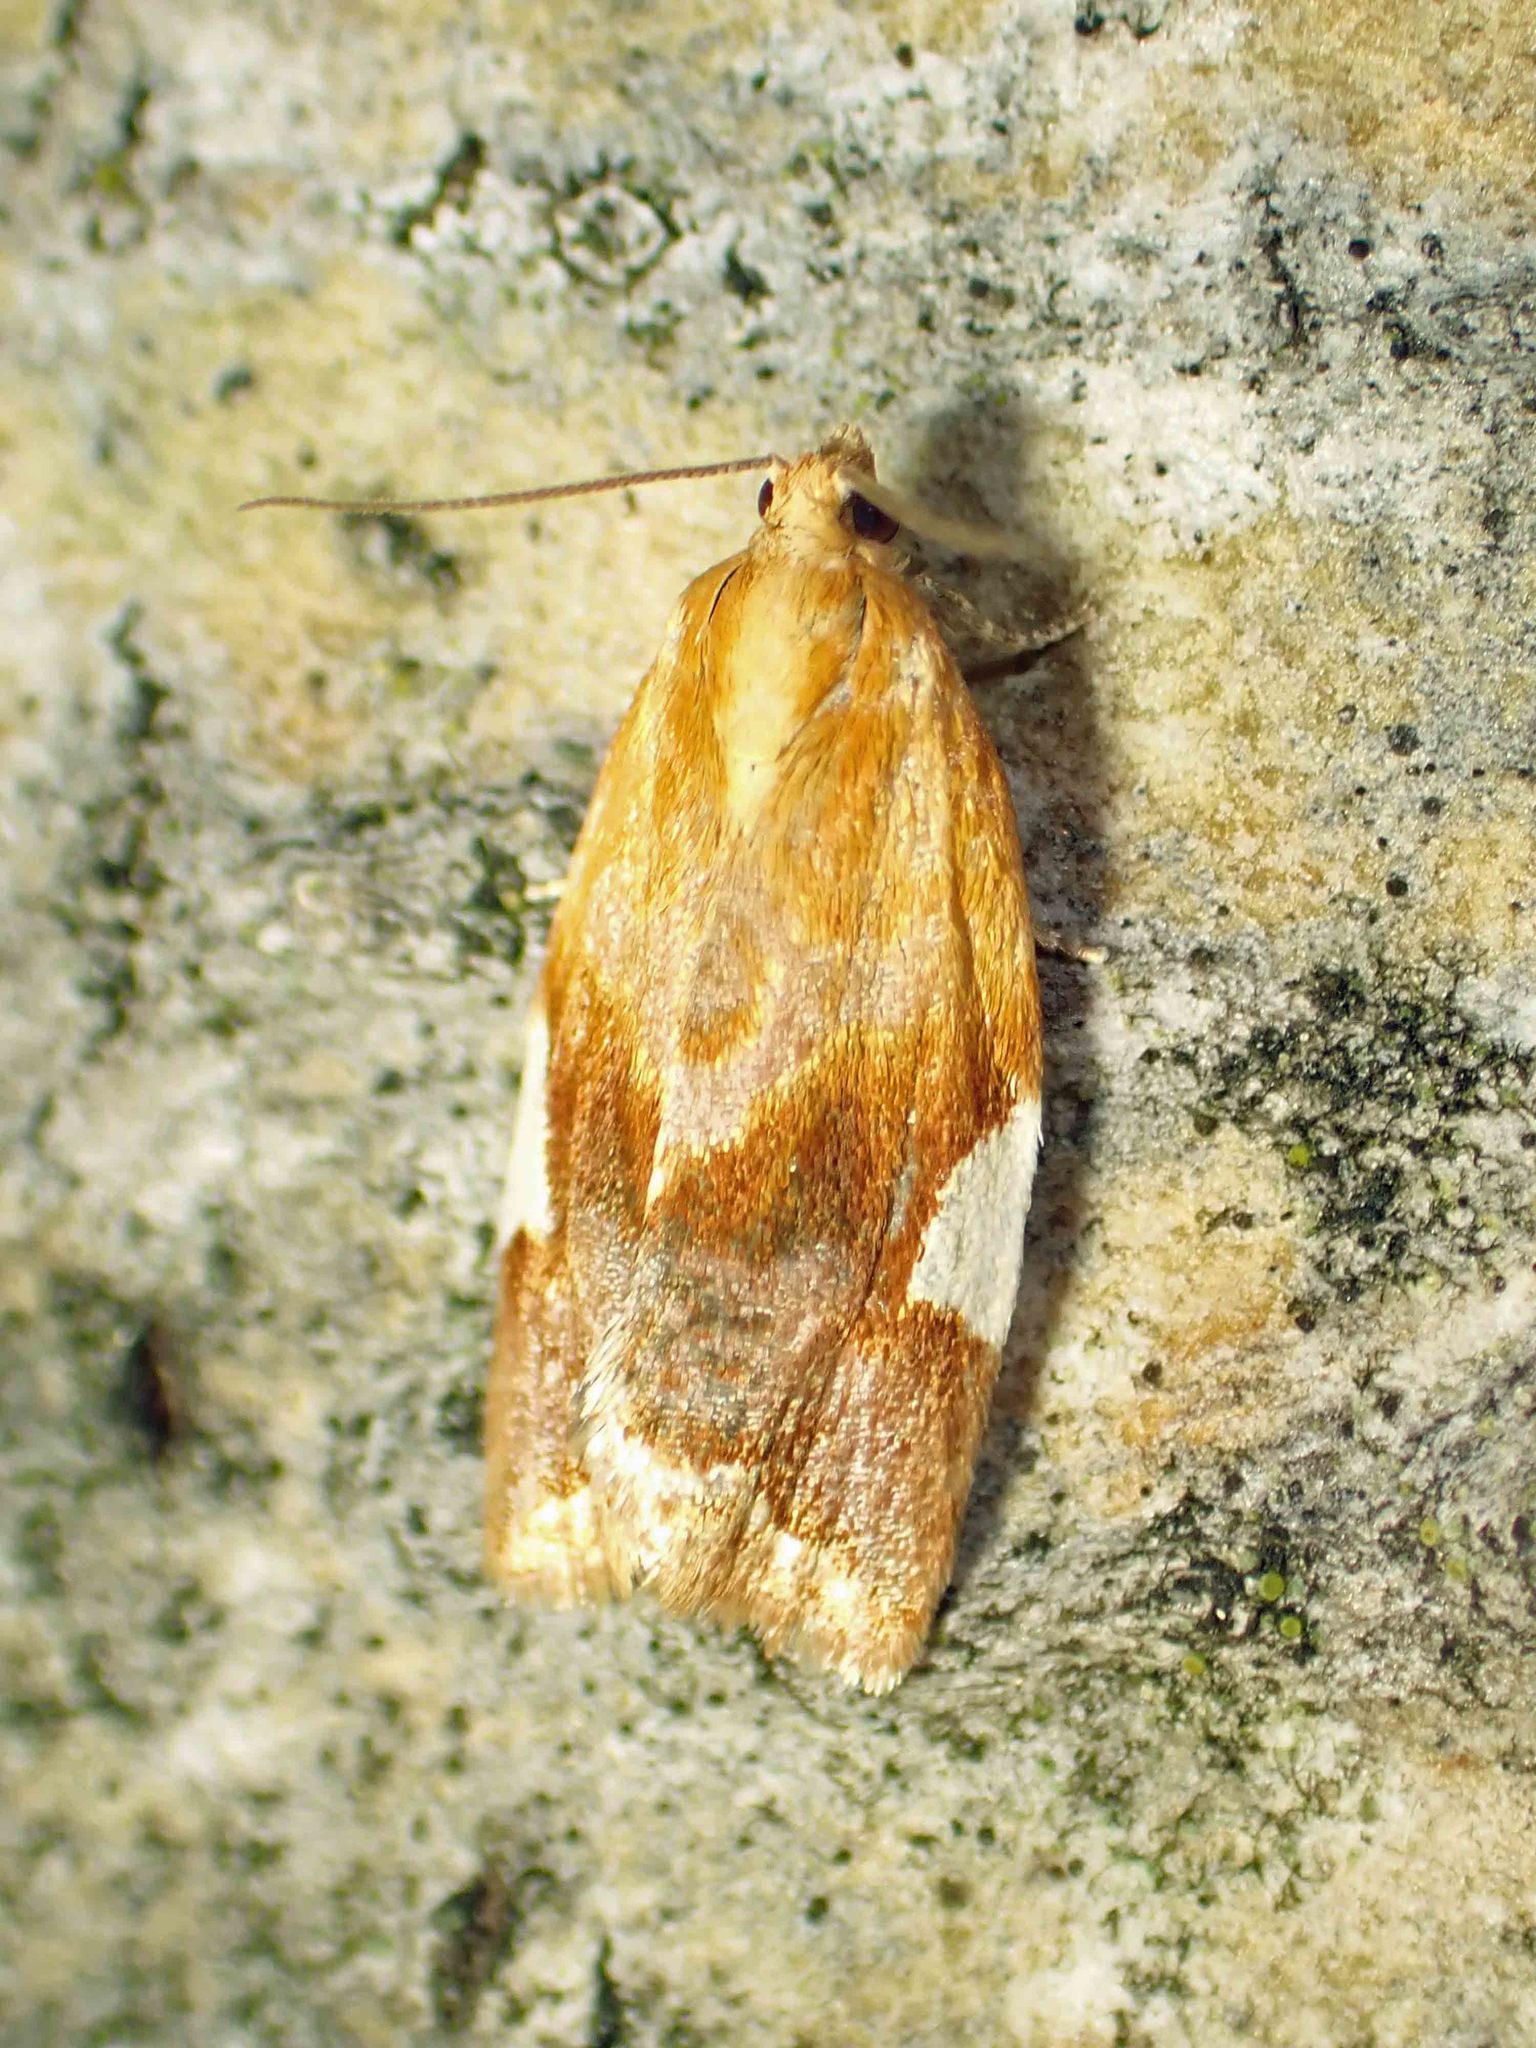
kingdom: Animalia
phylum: Arthropoda
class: Insecta
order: Lepidoptera
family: Tortricidae
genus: Clepsis
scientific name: Clepsis persicana
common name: White triangle tortrix
